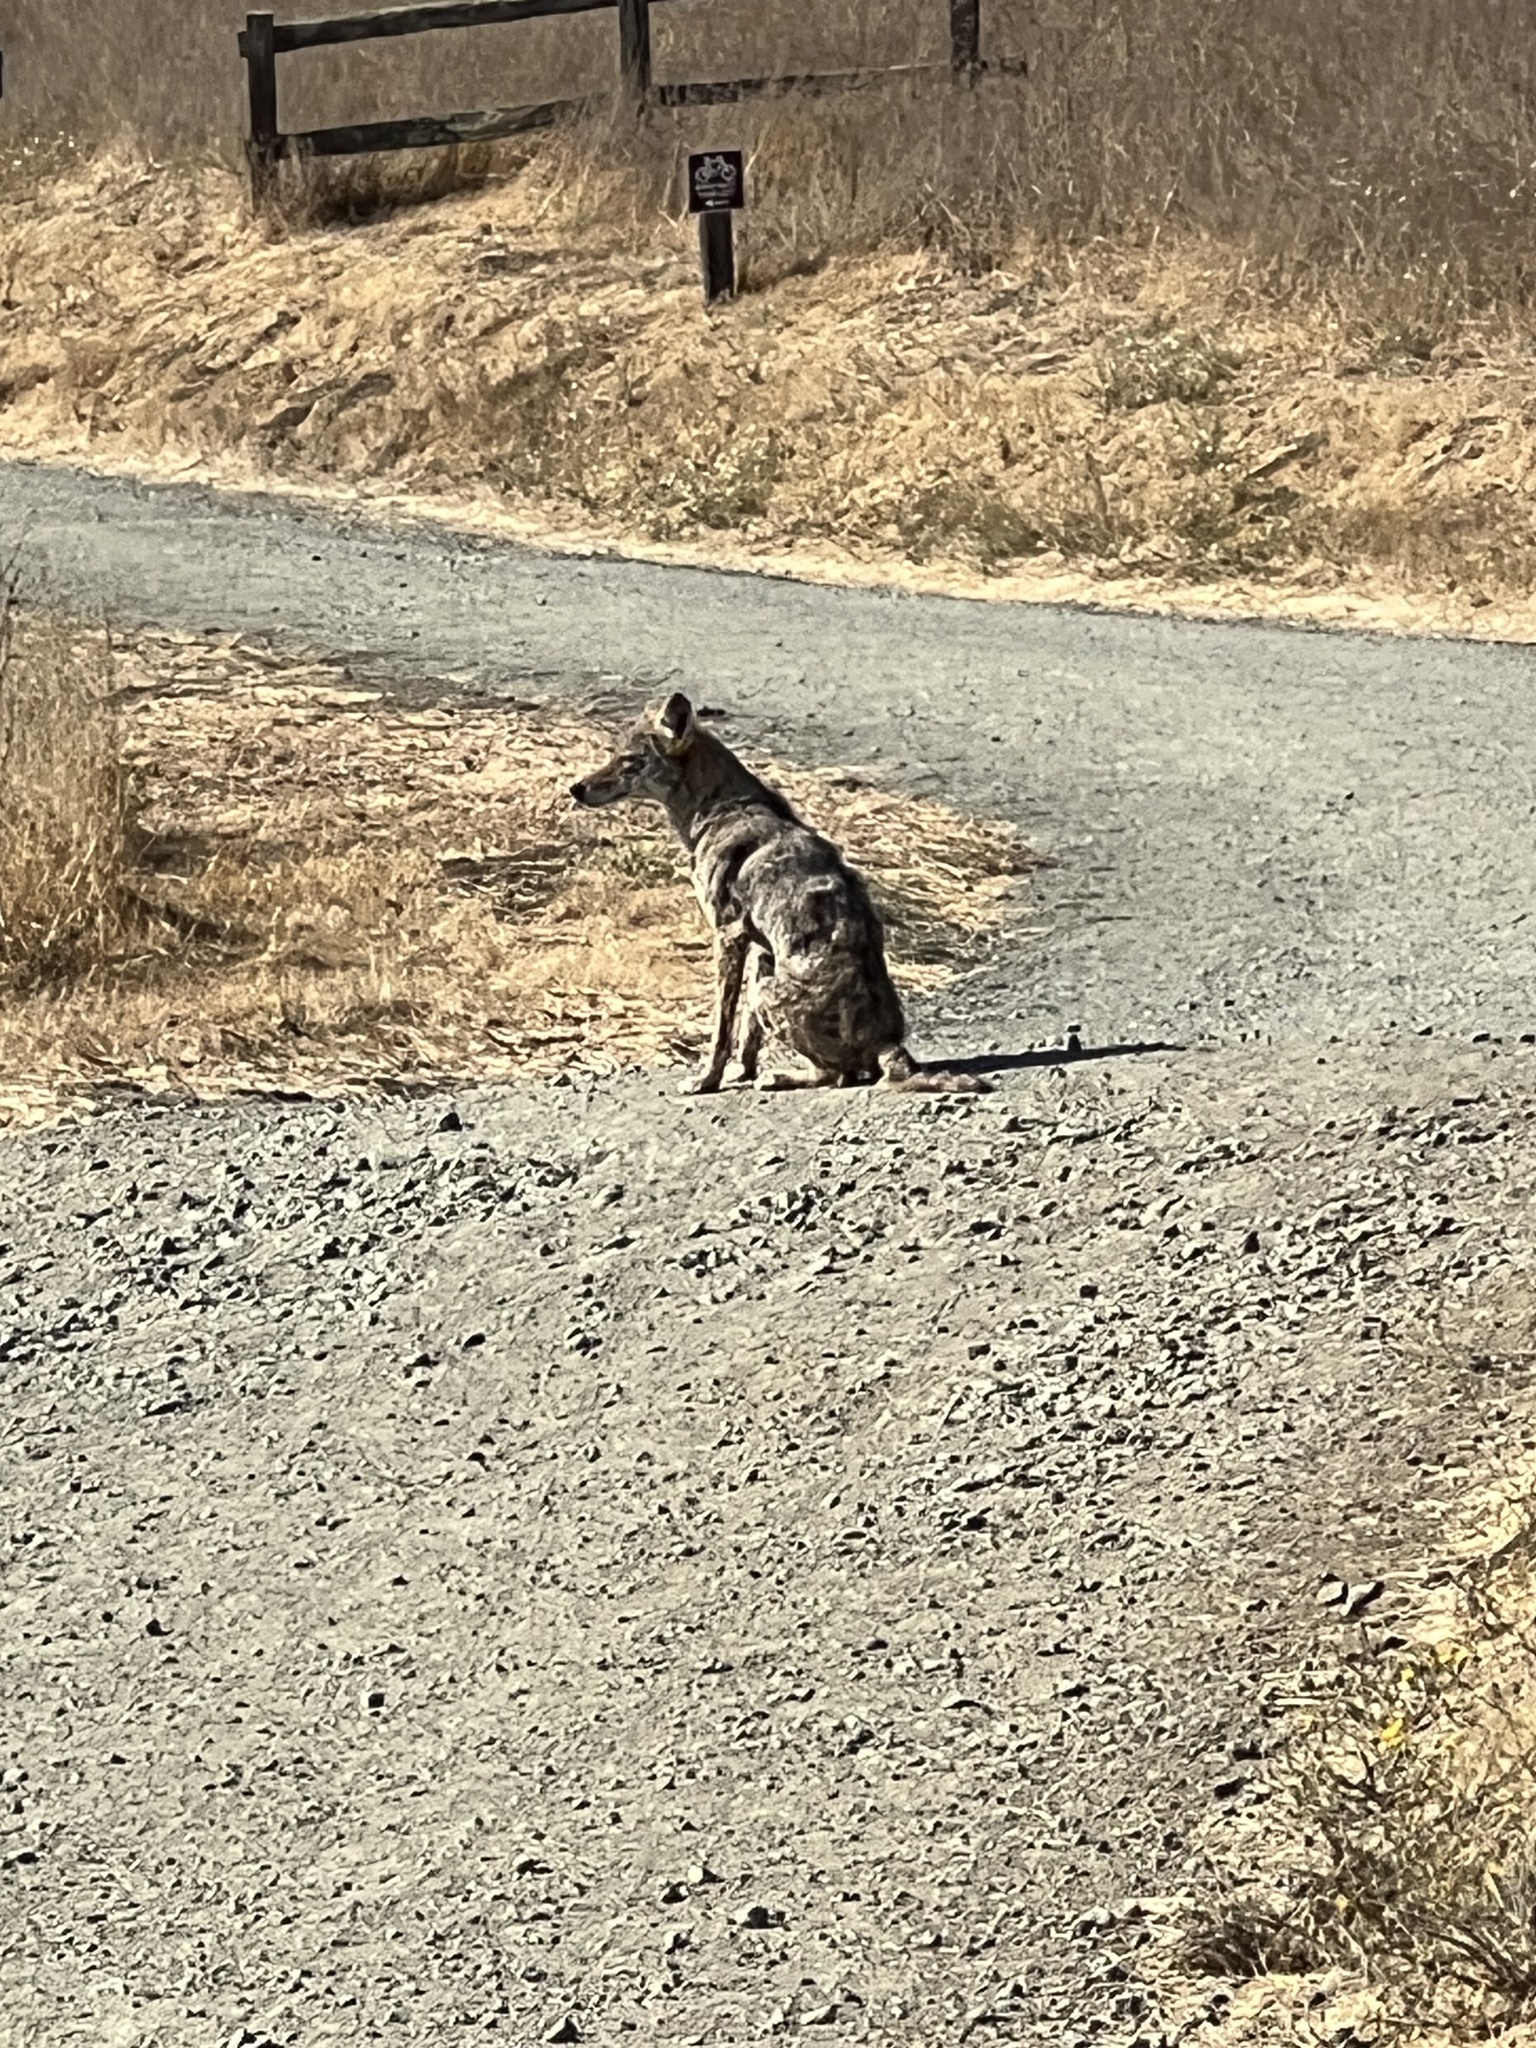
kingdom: Animalia
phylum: Chordata
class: Mammalia
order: Carnivora
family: Canidae
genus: Canis
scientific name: Canis latrans
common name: Coyote
